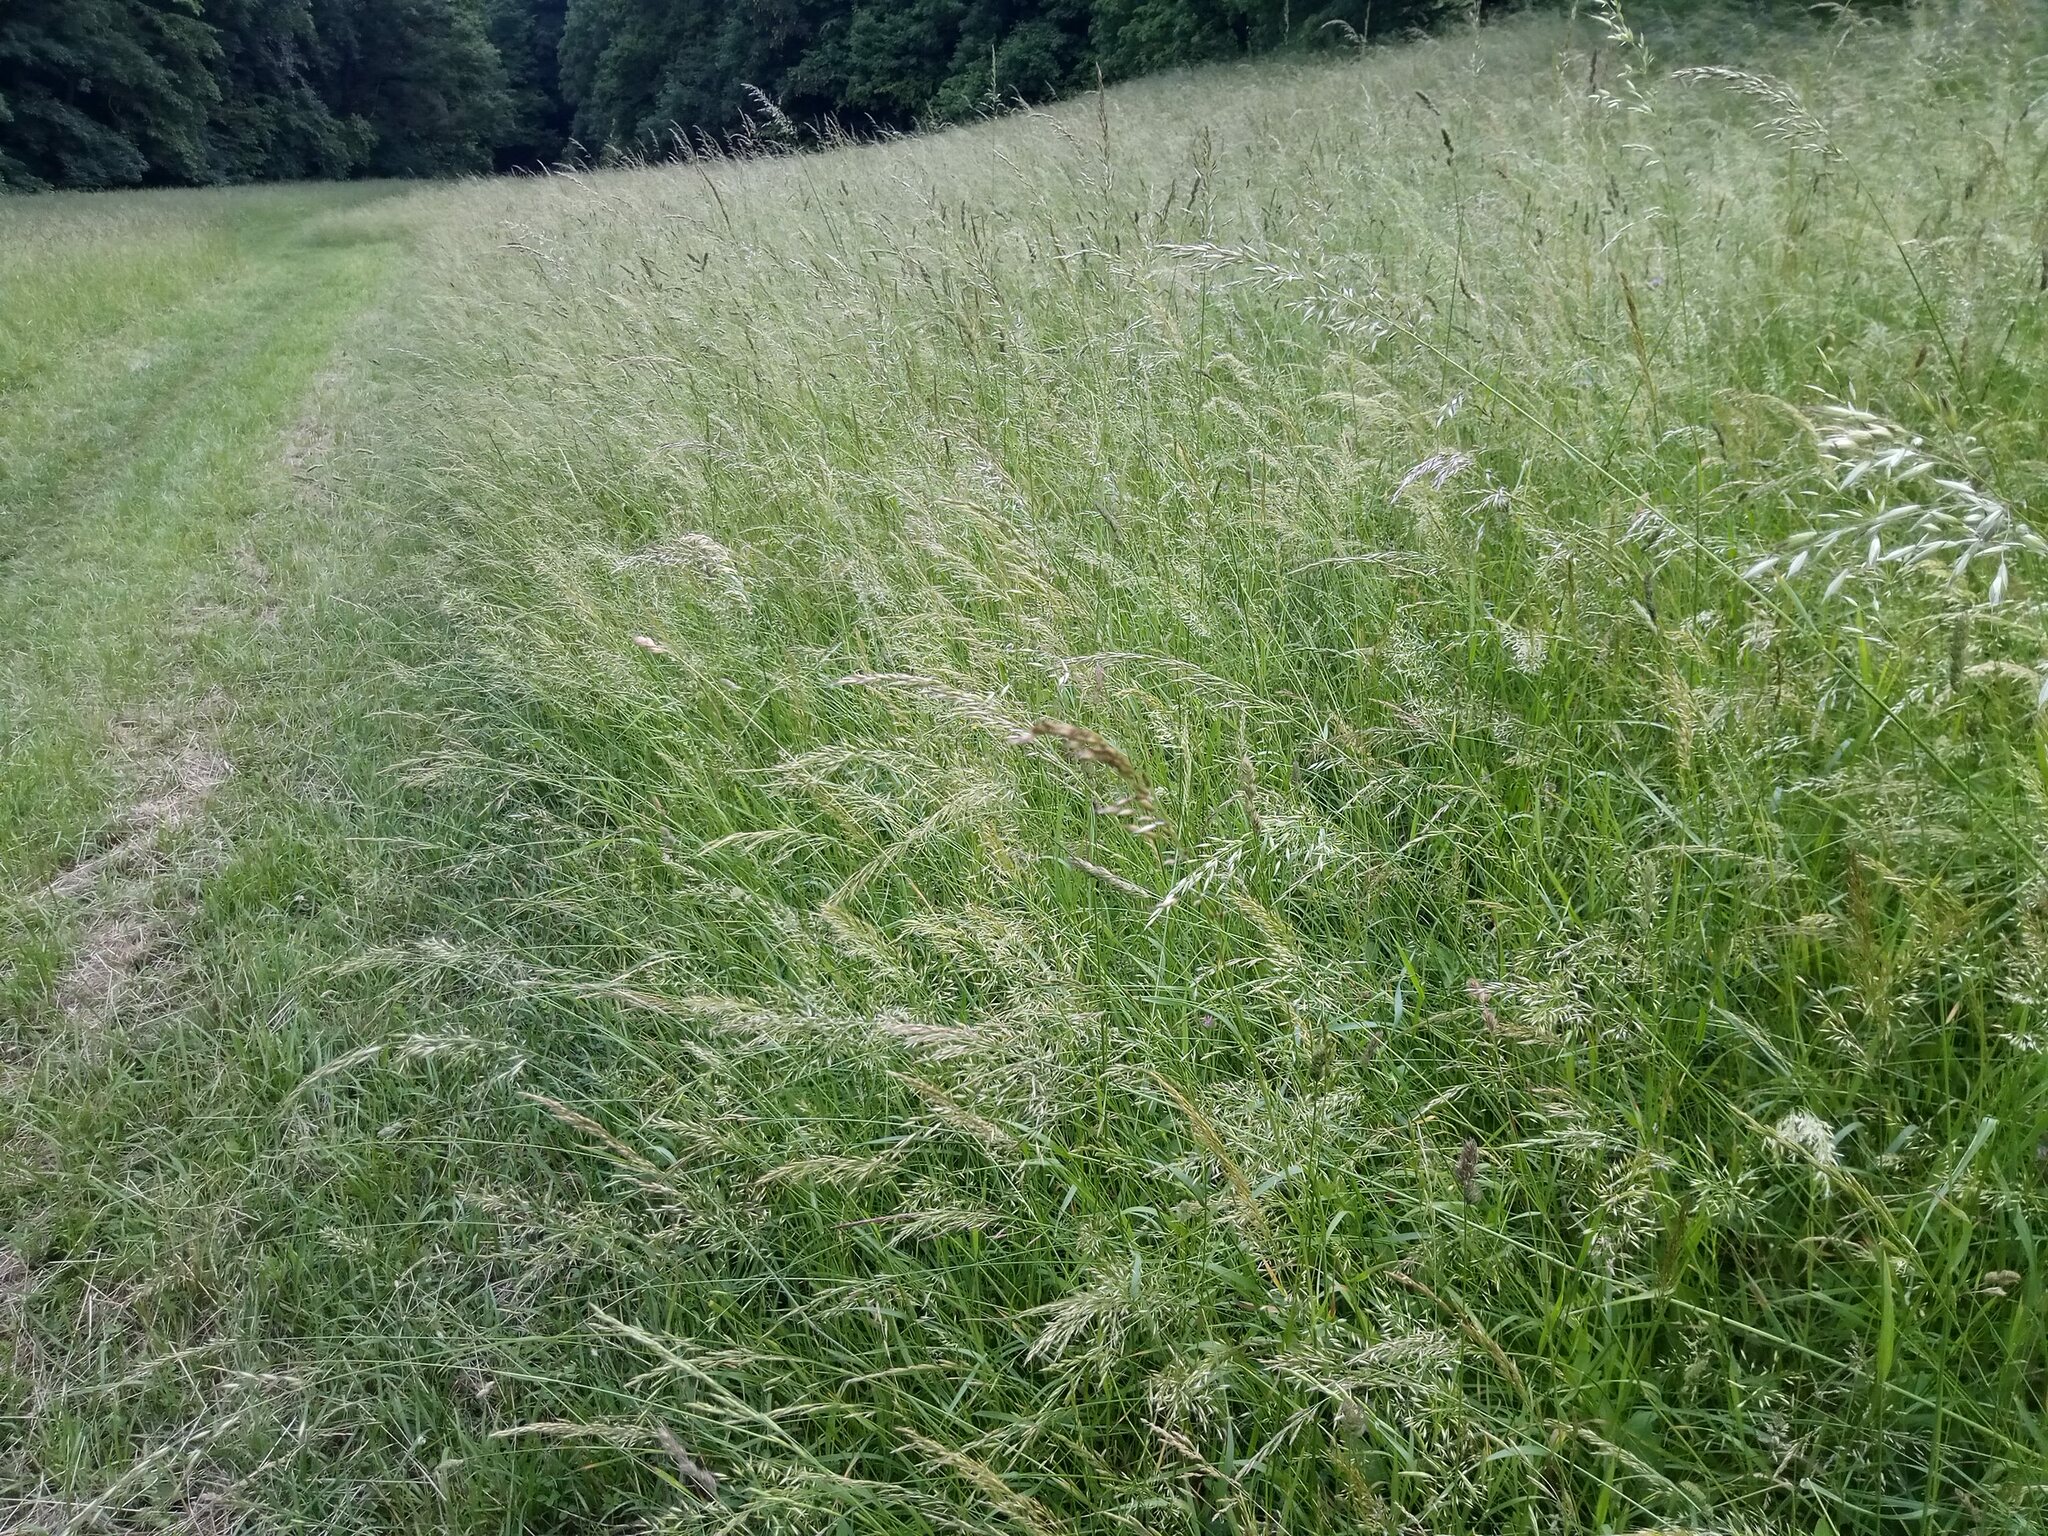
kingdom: Plantae
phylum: Tracheophyta
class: Liliopsida
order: Poales
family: Poaceae
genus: Arrhenatherum
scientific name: Arrhenatherum elatius
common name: Tall oatgrass
